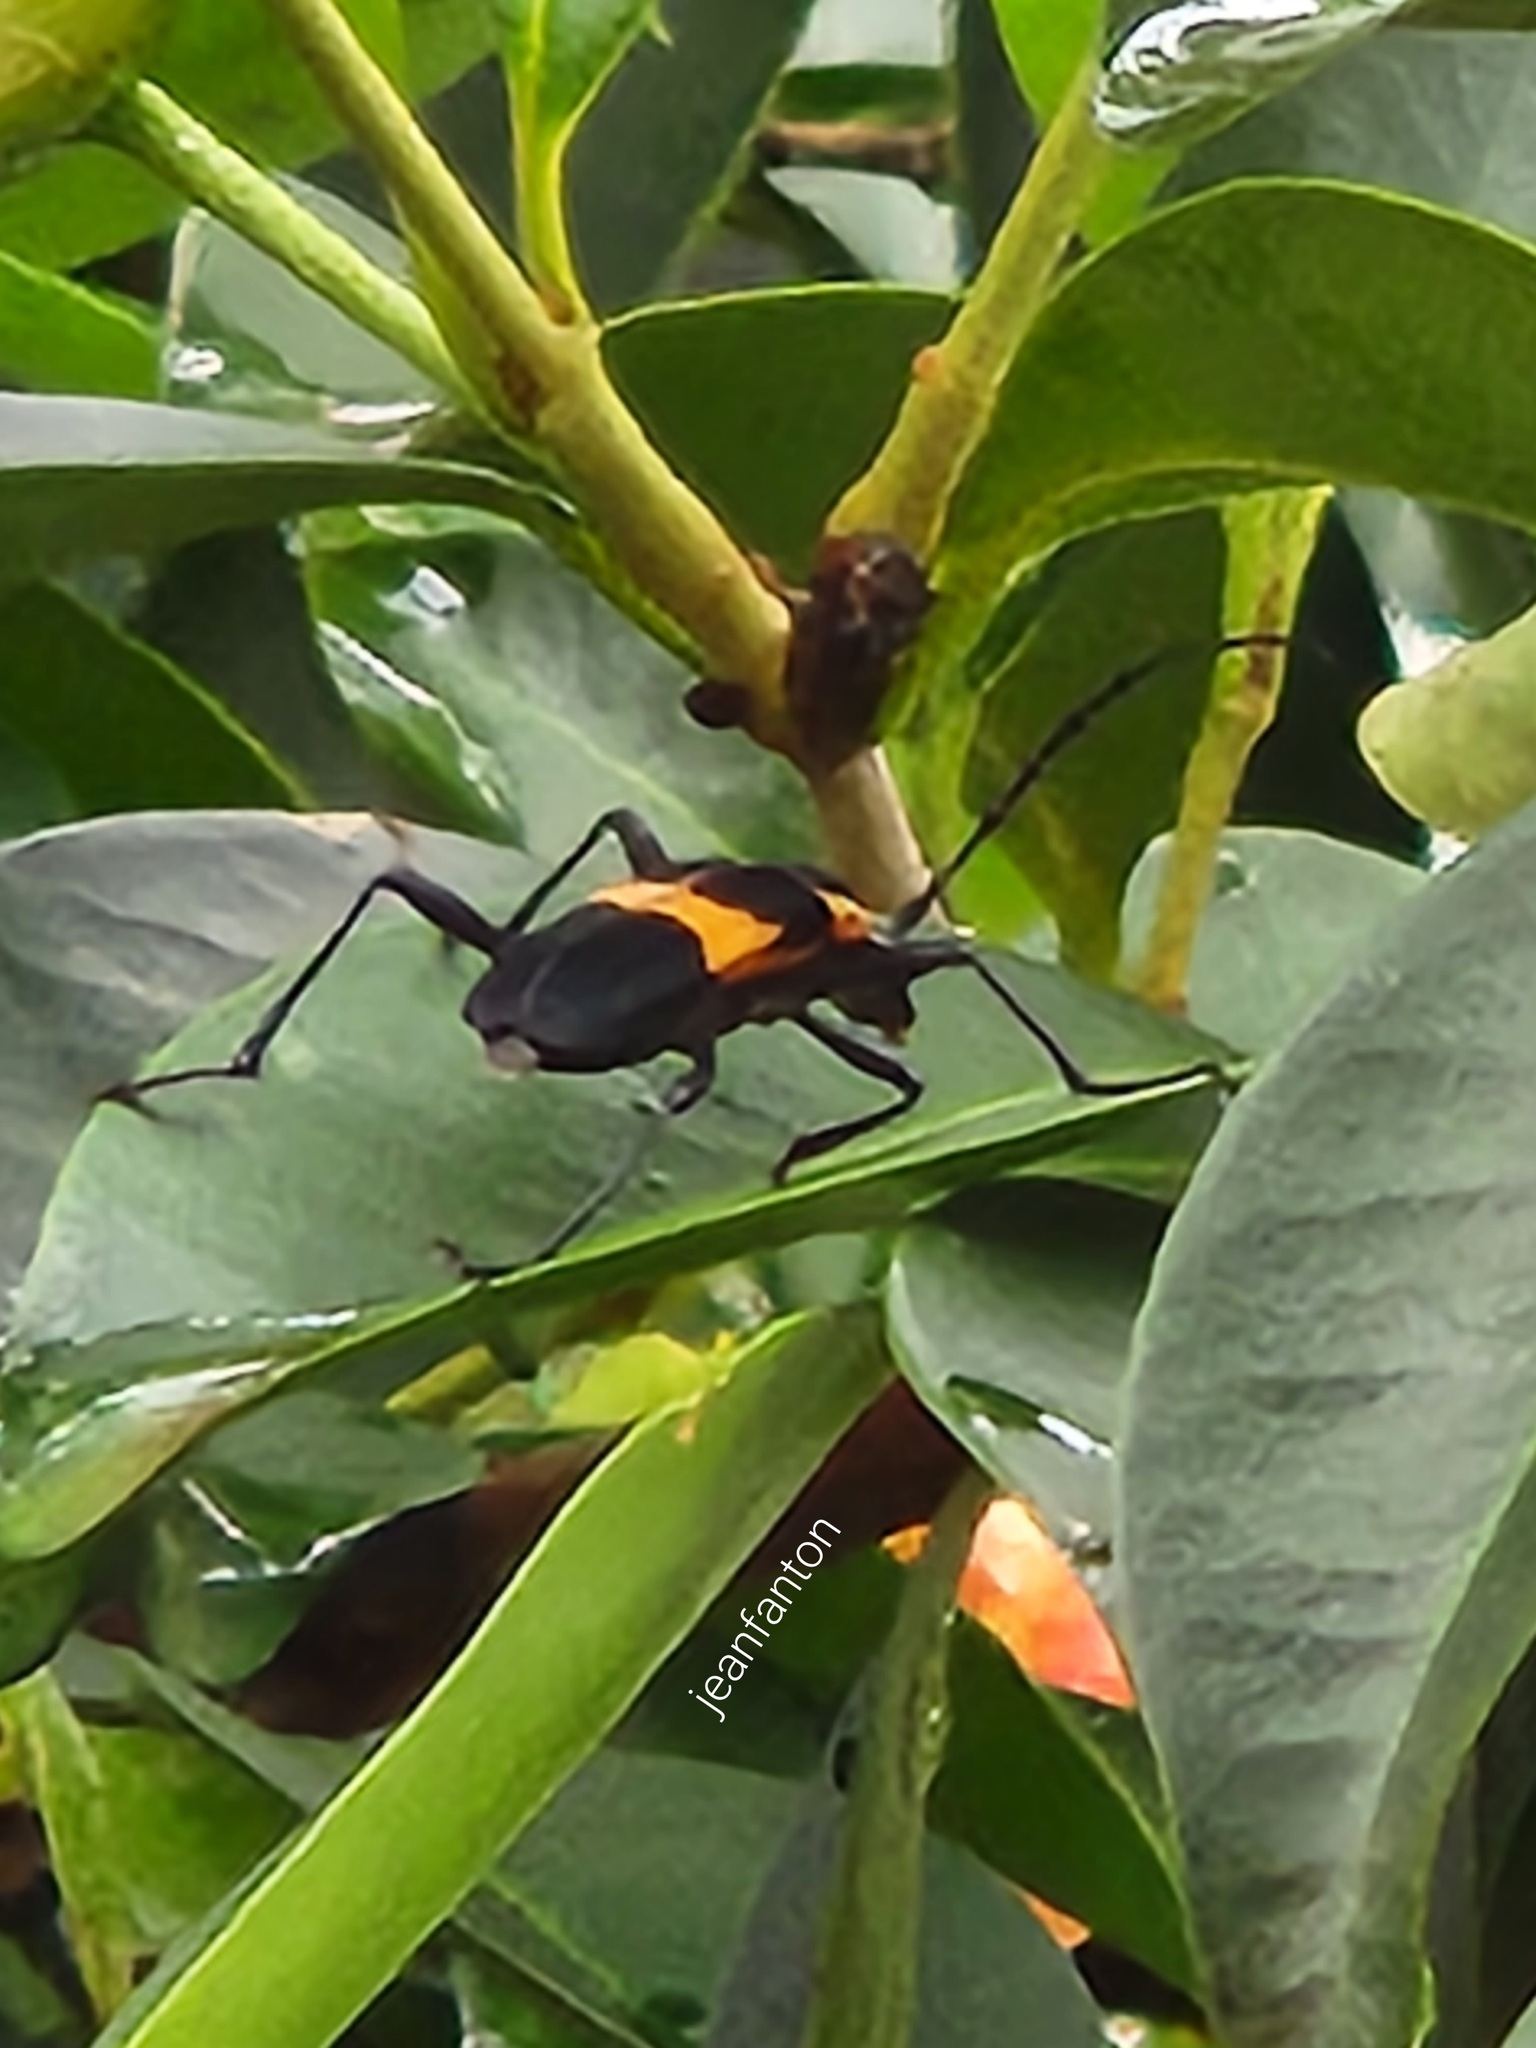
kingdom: Animalia
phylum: Arthropoda
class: Insecta
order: Coleoptera
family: Cerambycidae
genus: Mallosoma
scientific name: Mallosoma zonatum
